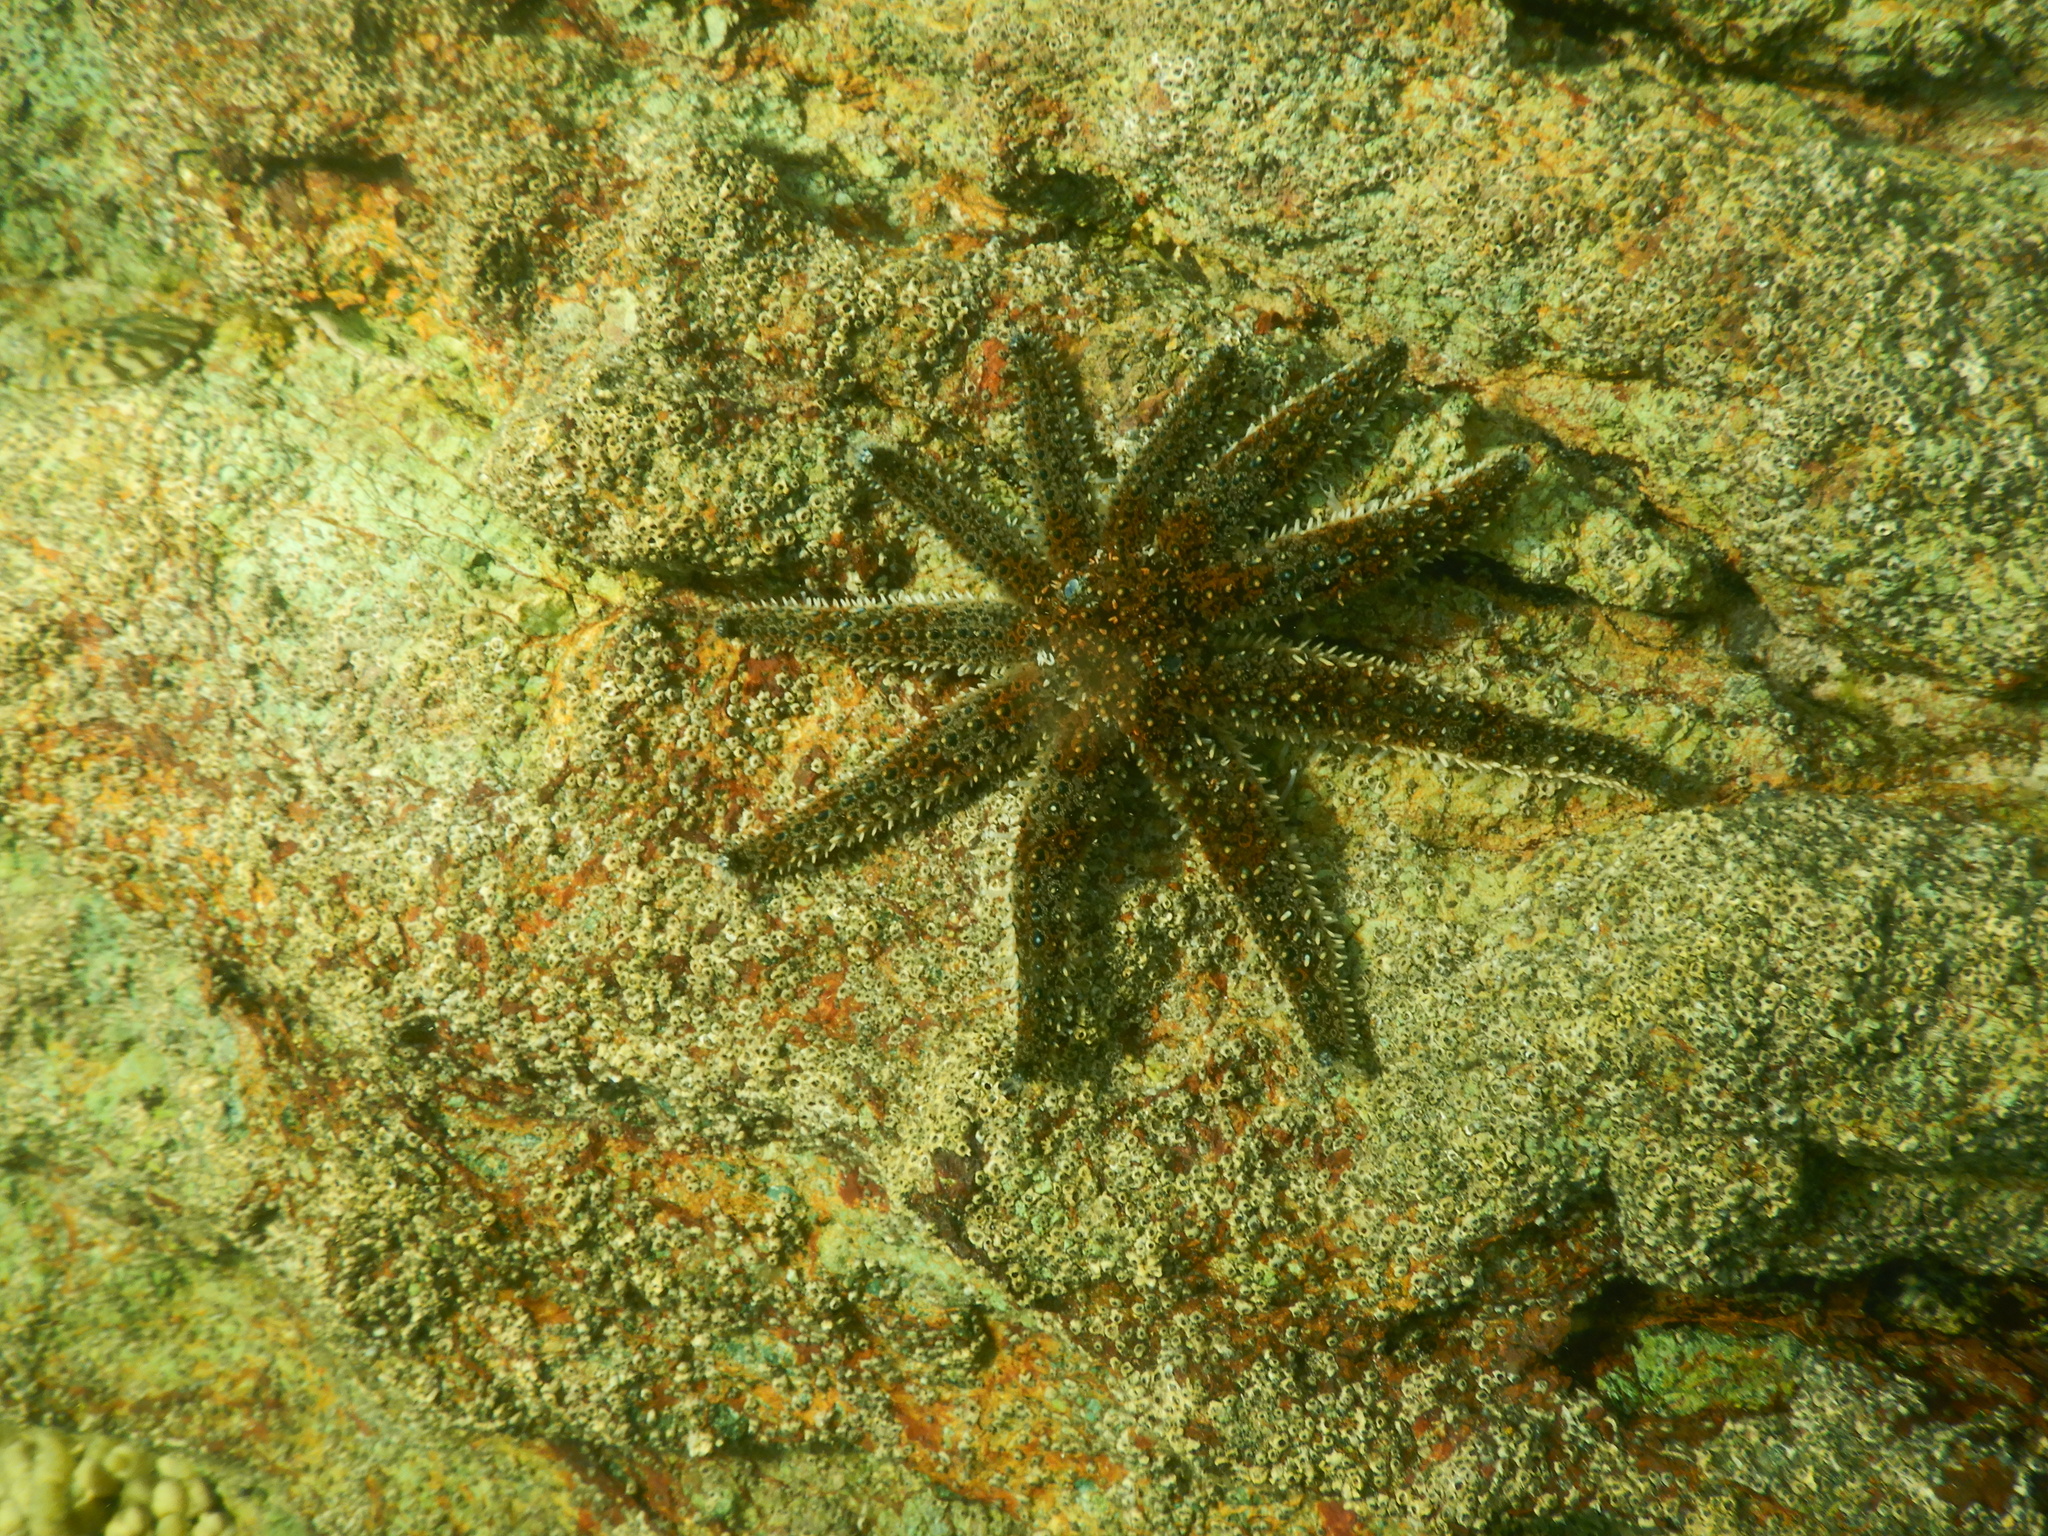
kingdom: Animalia
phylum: Echinodermata
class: Asteroidea
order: Forcipulatida
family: Asteriidae
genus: Coscinasterias
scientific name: Coscinasterias muricata
